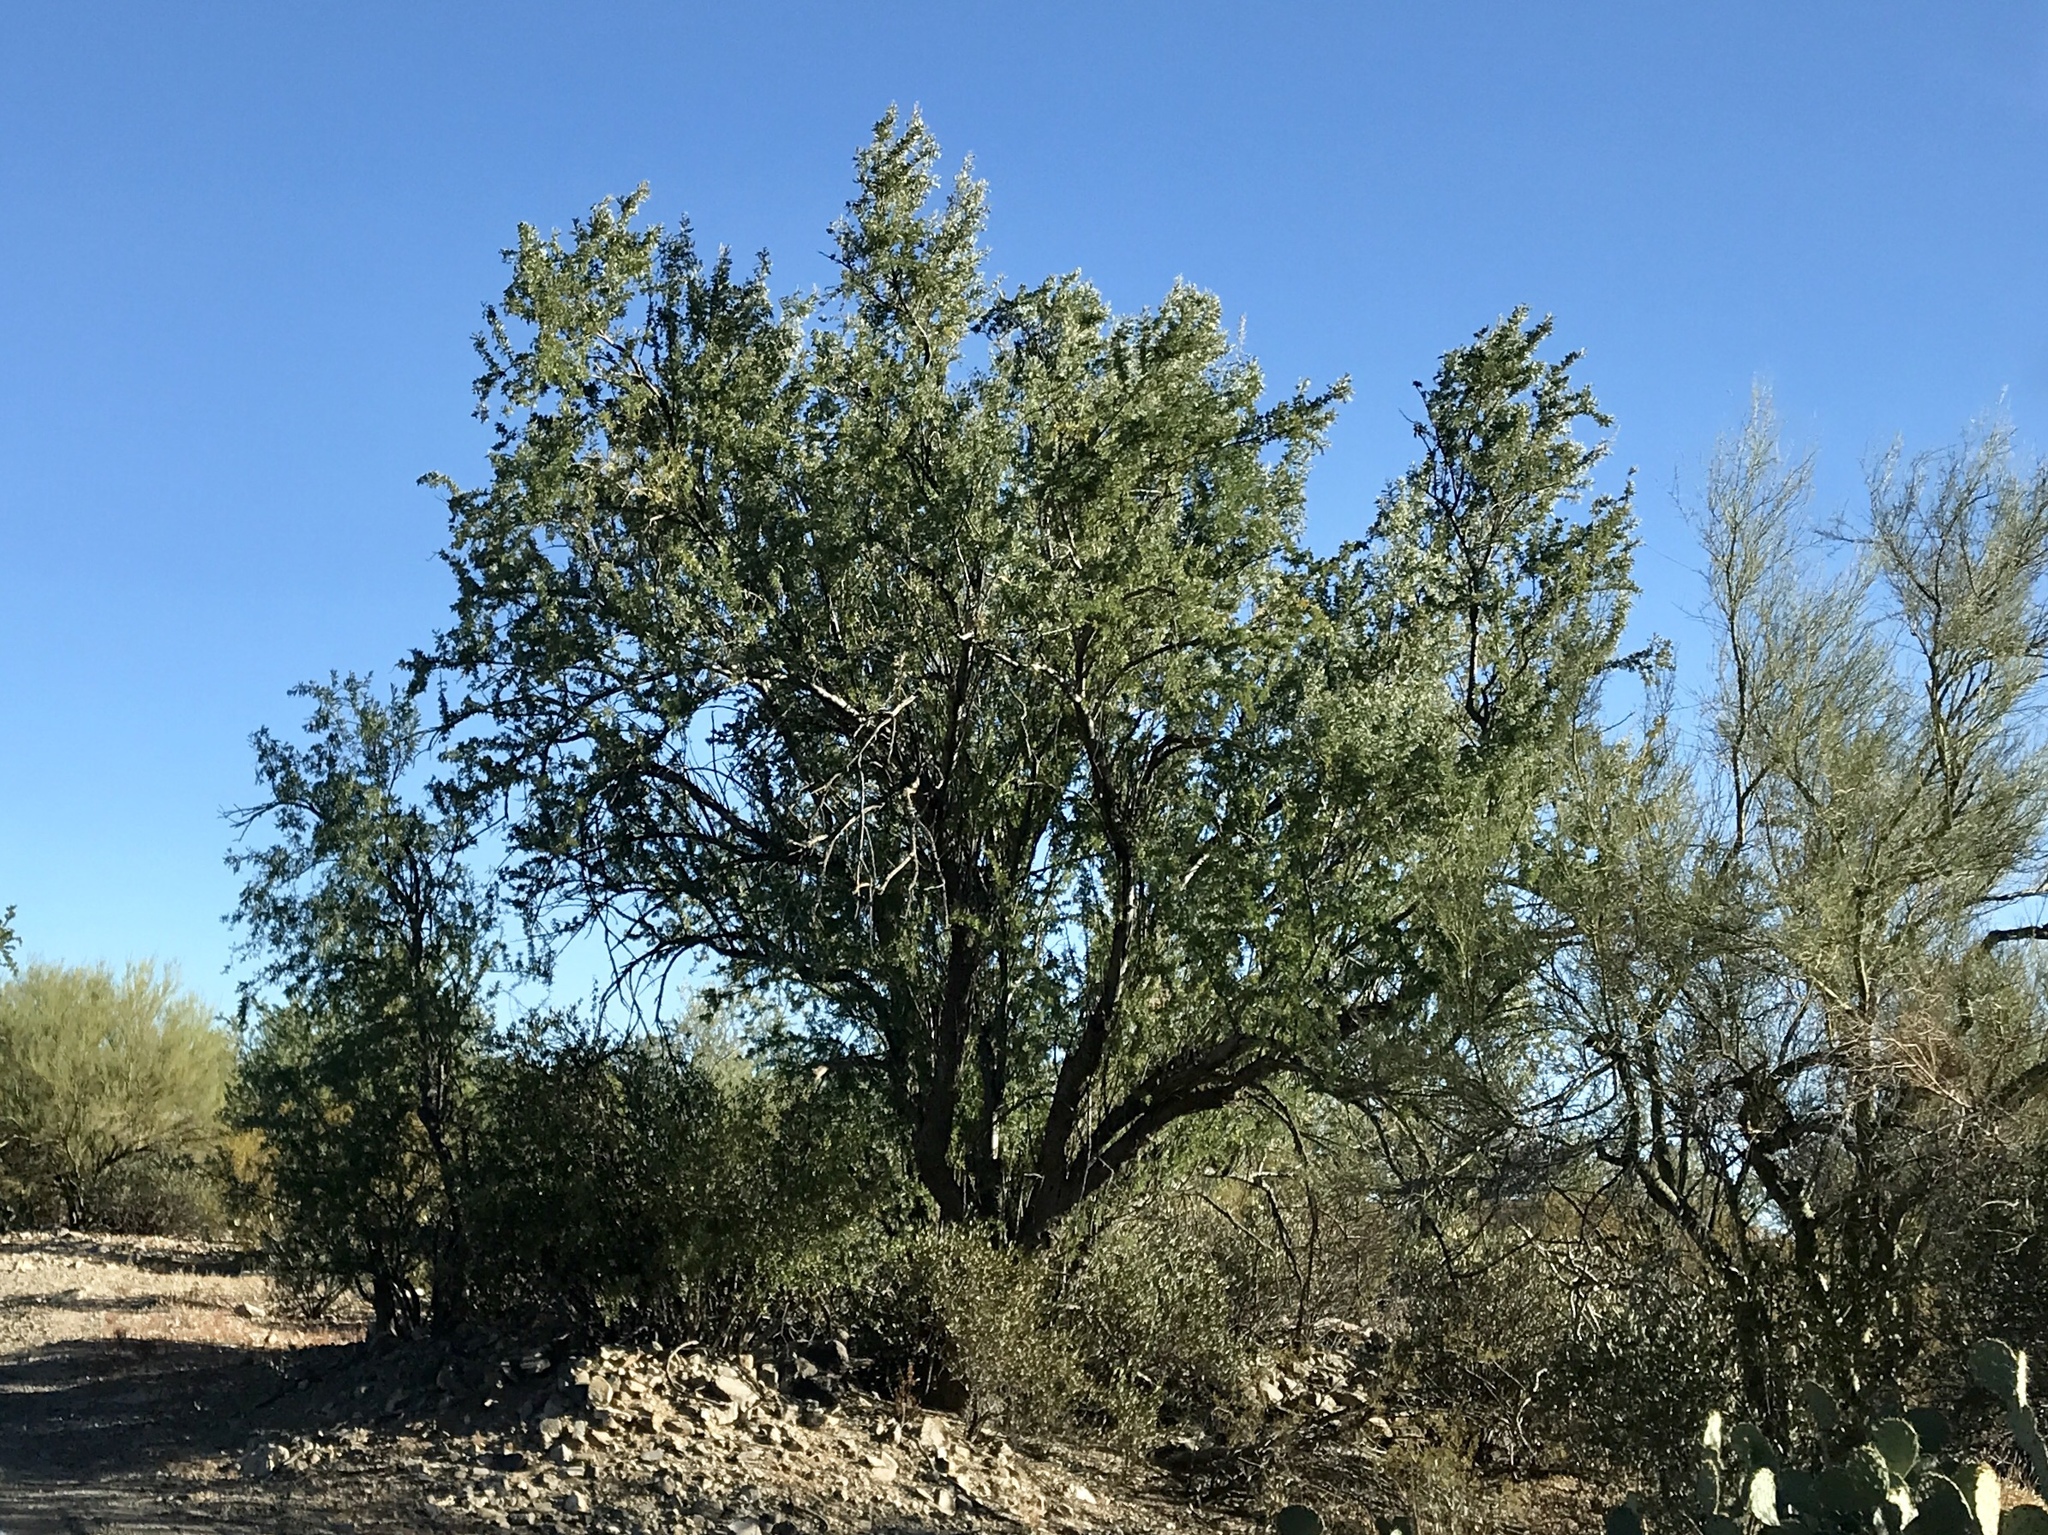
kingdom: Plantae
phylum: Tracheophyta
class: Magnoliopsida
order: Fabales
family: Fabaceae
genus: Olneya
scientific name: Olneya tesota
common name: Desert ironwood
